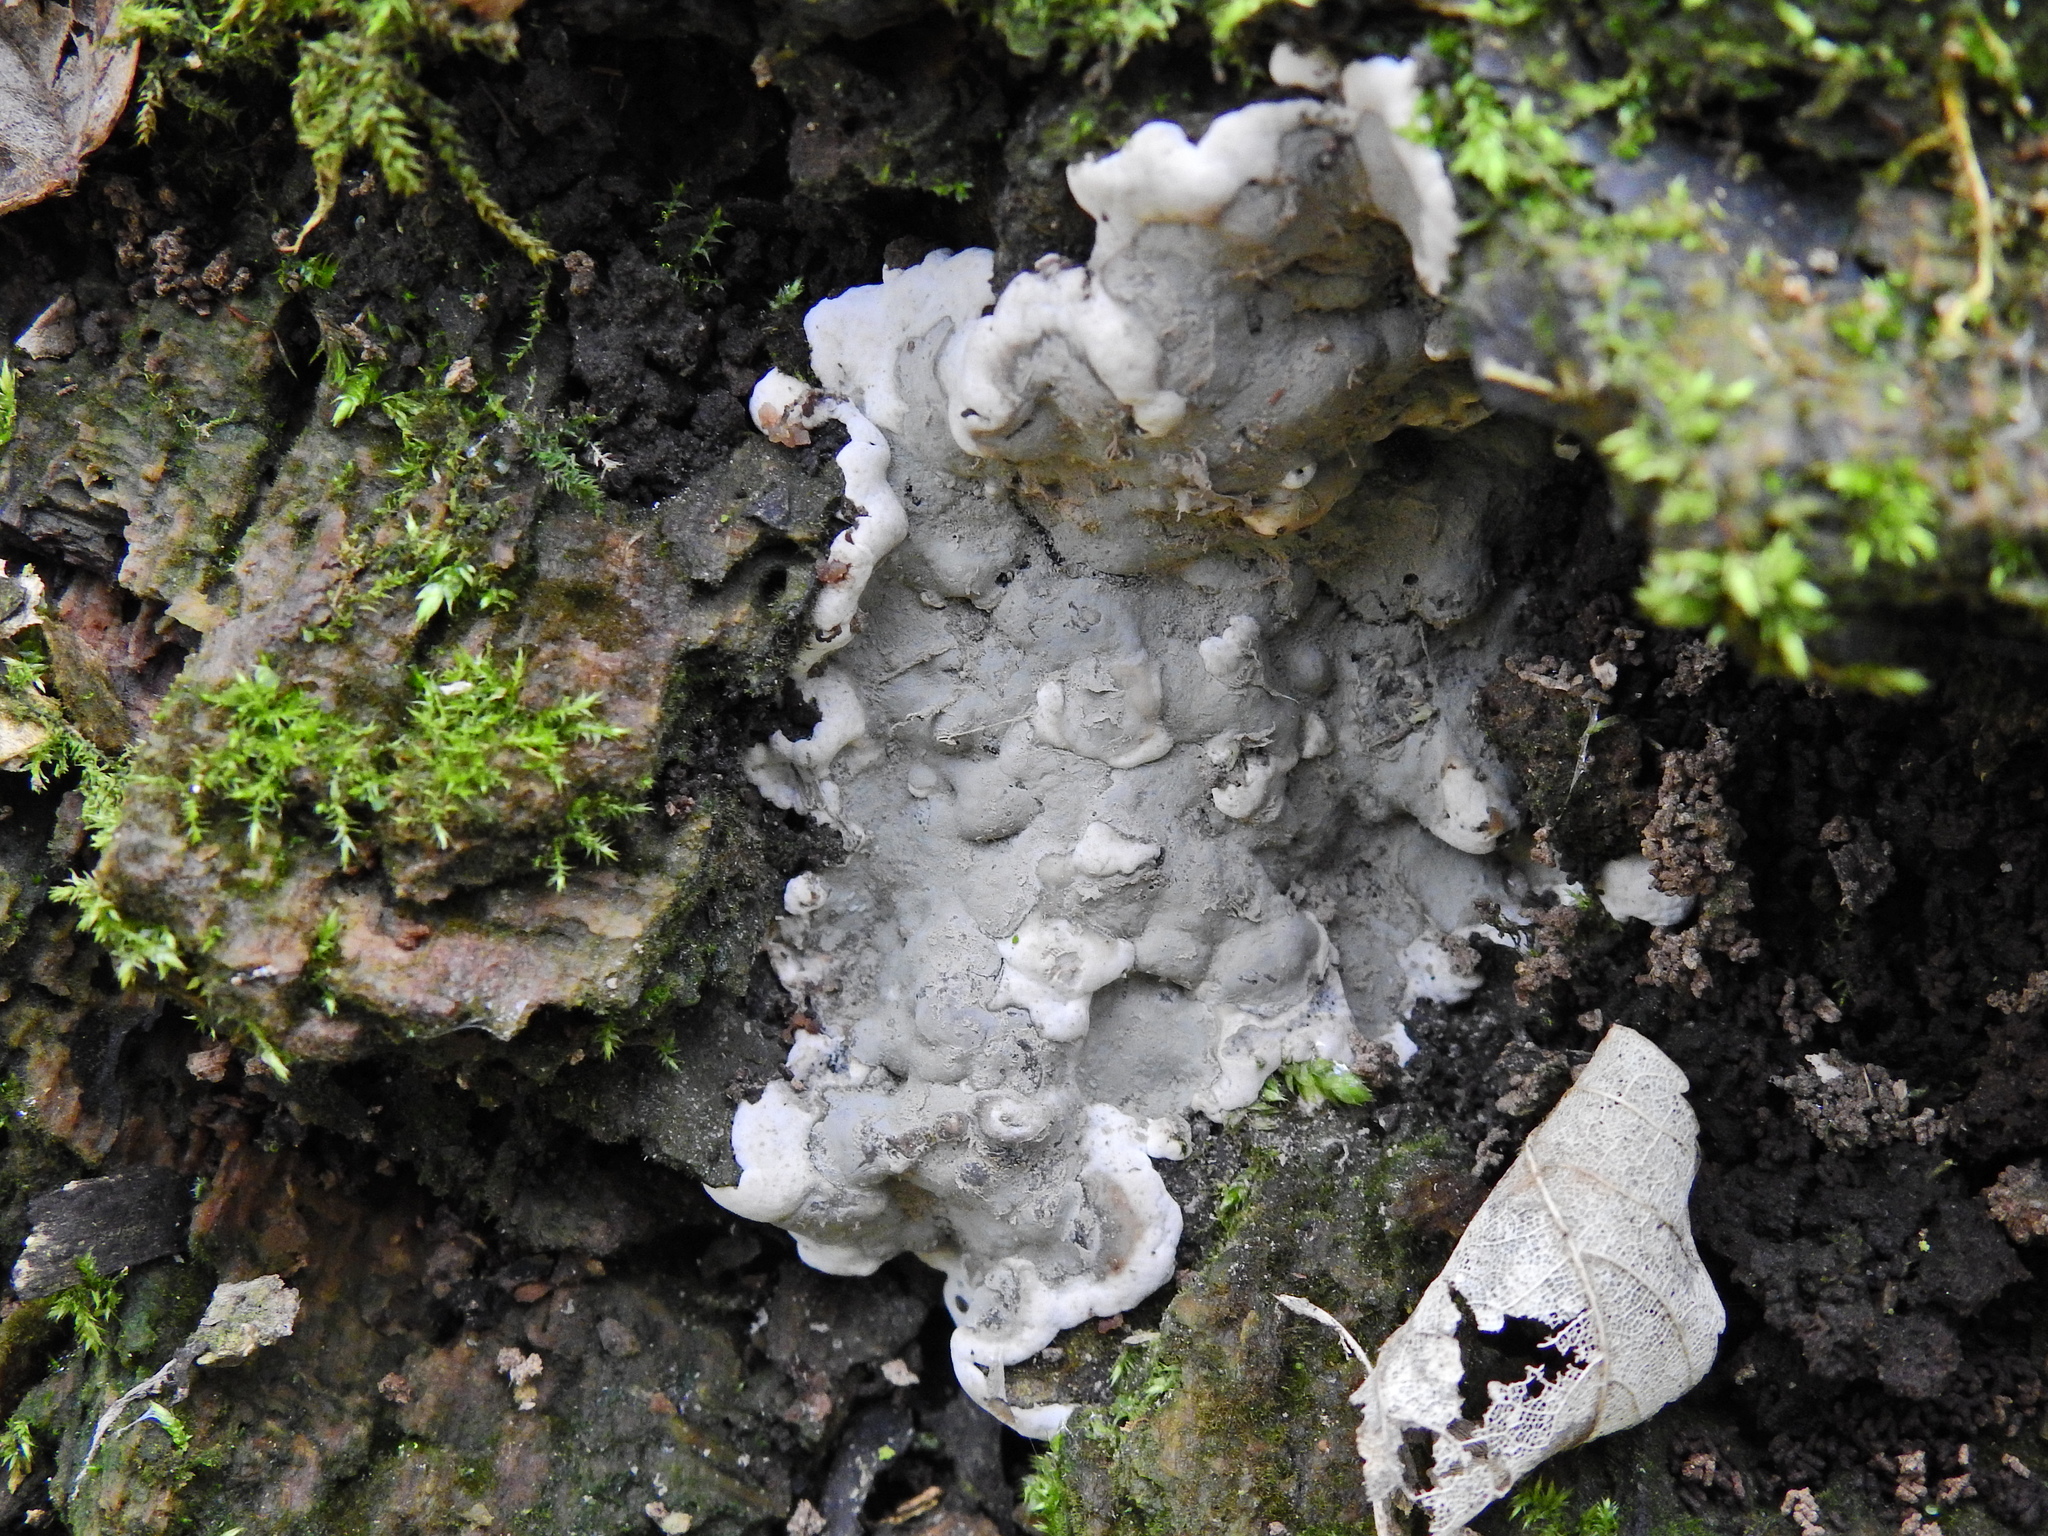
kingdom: Fungi
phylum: Ascomycota
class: Sordariomycetes
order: Xylariales
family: Xylariaceae
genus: Kretzschmaria
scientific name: Kretzschmaria deusta
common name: Brittle cinder
